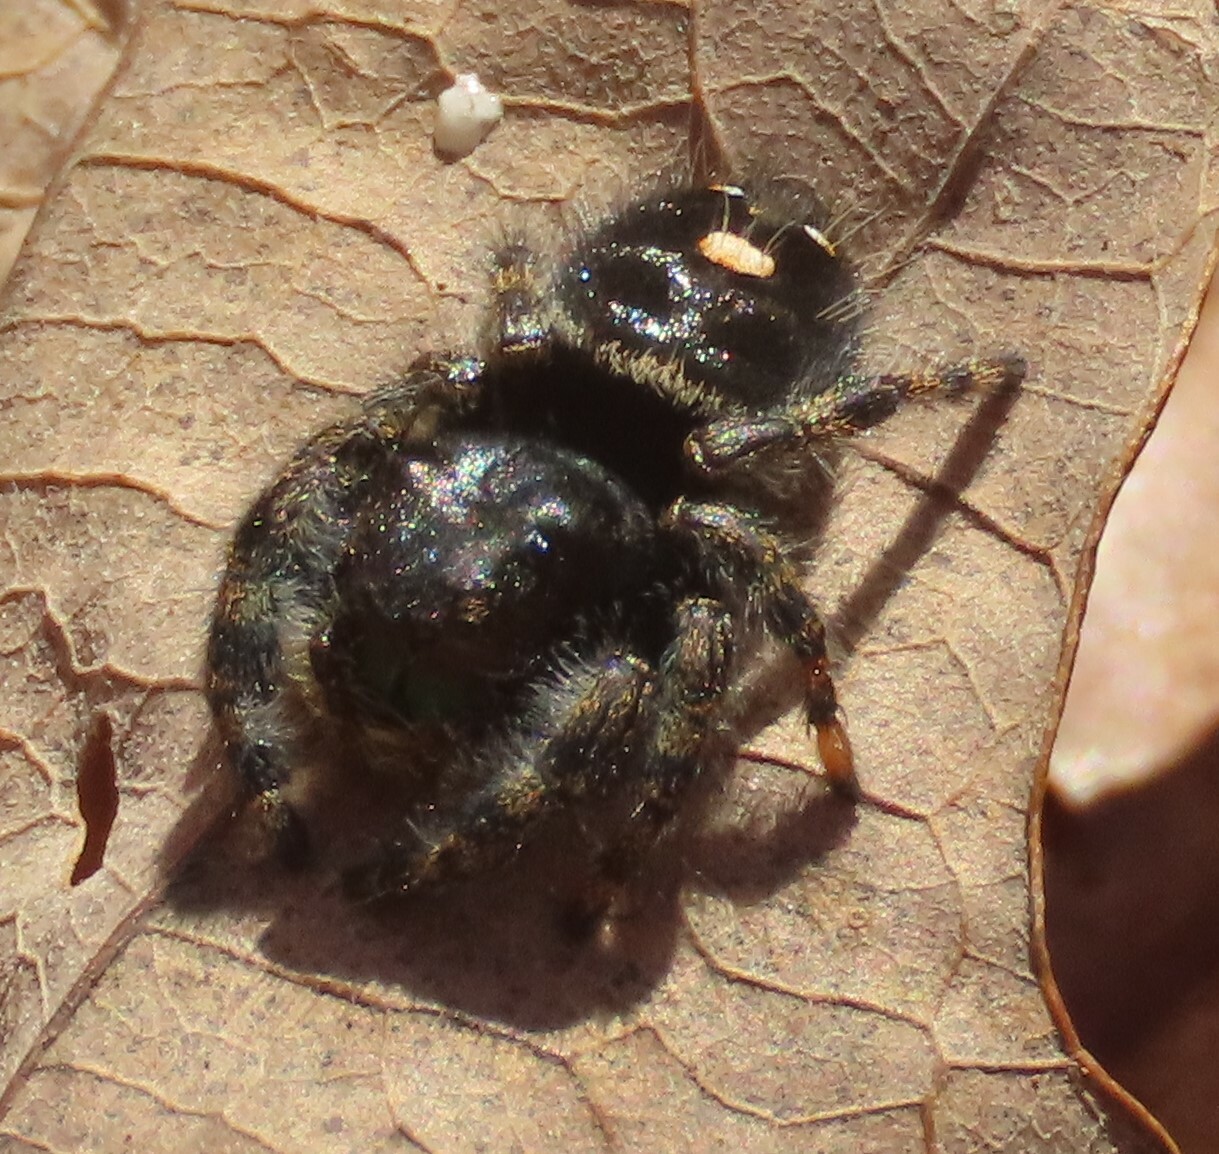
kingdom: Animalia
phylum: Arthropoda
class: Arachnida
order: Araneae
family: Salticidae
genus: Phidippus
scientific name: Phidippus audax
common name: Bold jumper
